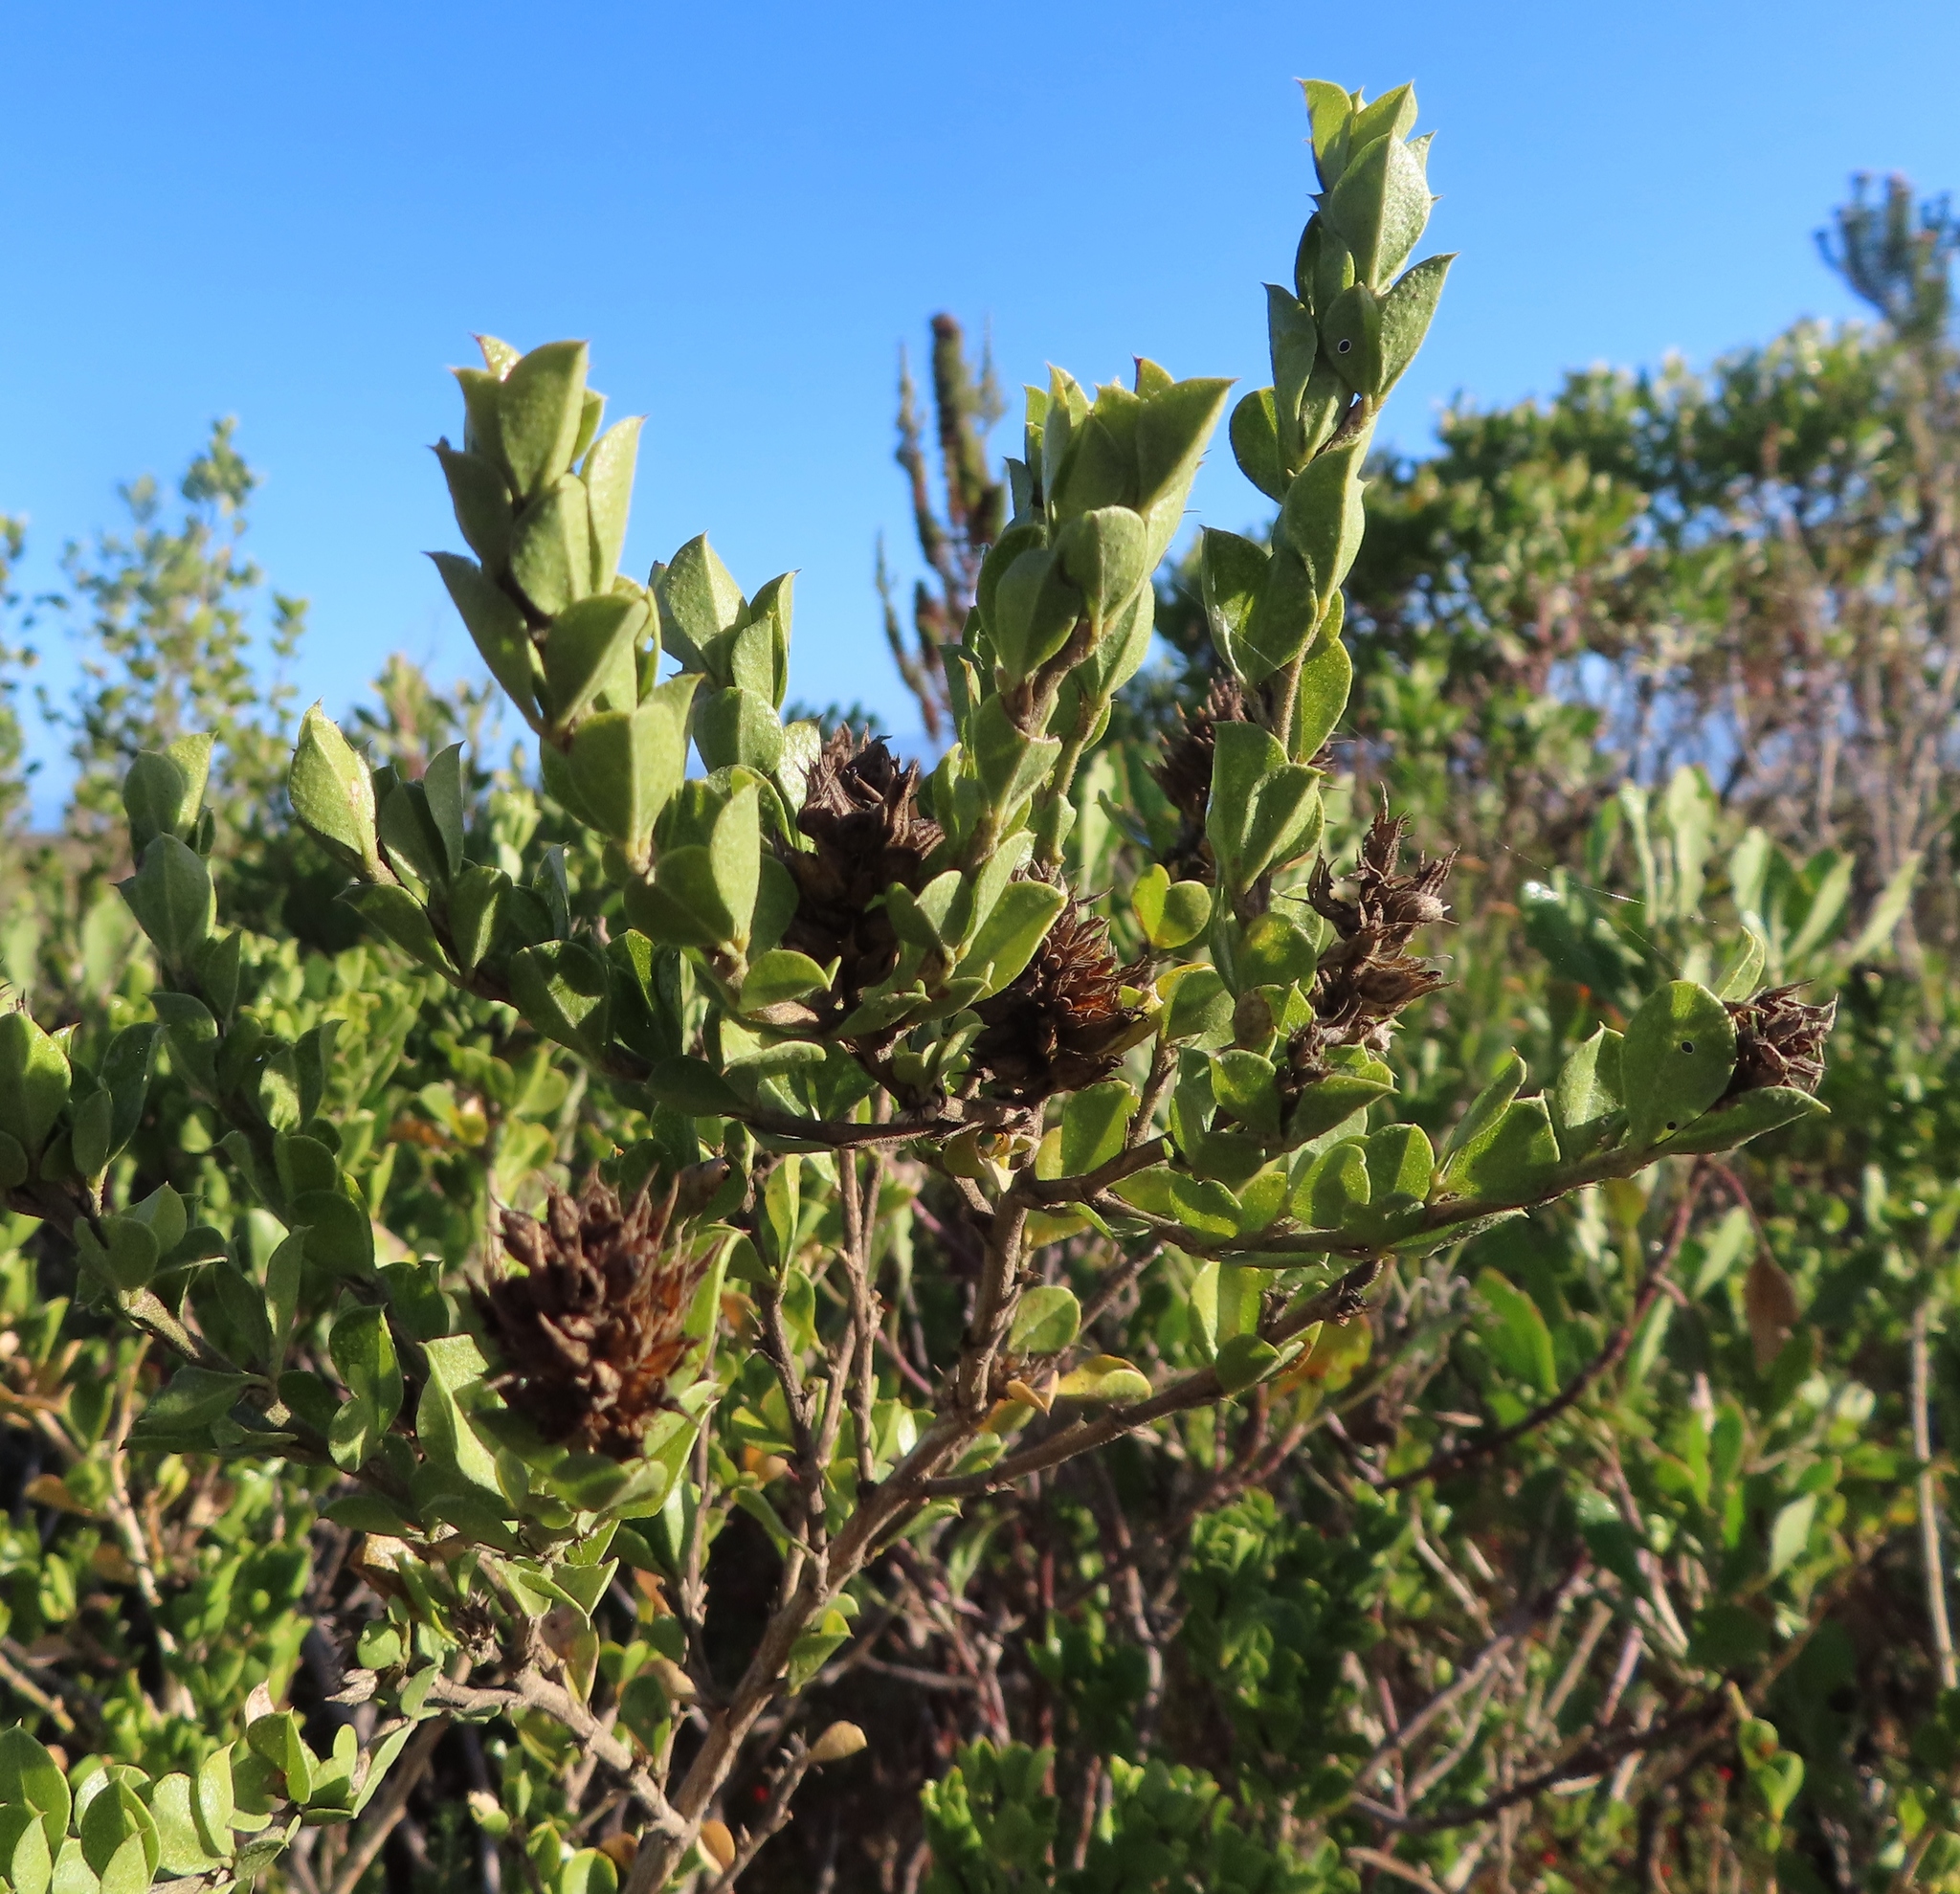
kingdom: Plantae
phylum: Tracheophyta
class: Magnoliopsida
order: Fabales
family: Fabaceae
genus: Psoralea
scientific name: Psoralea bracteolata
